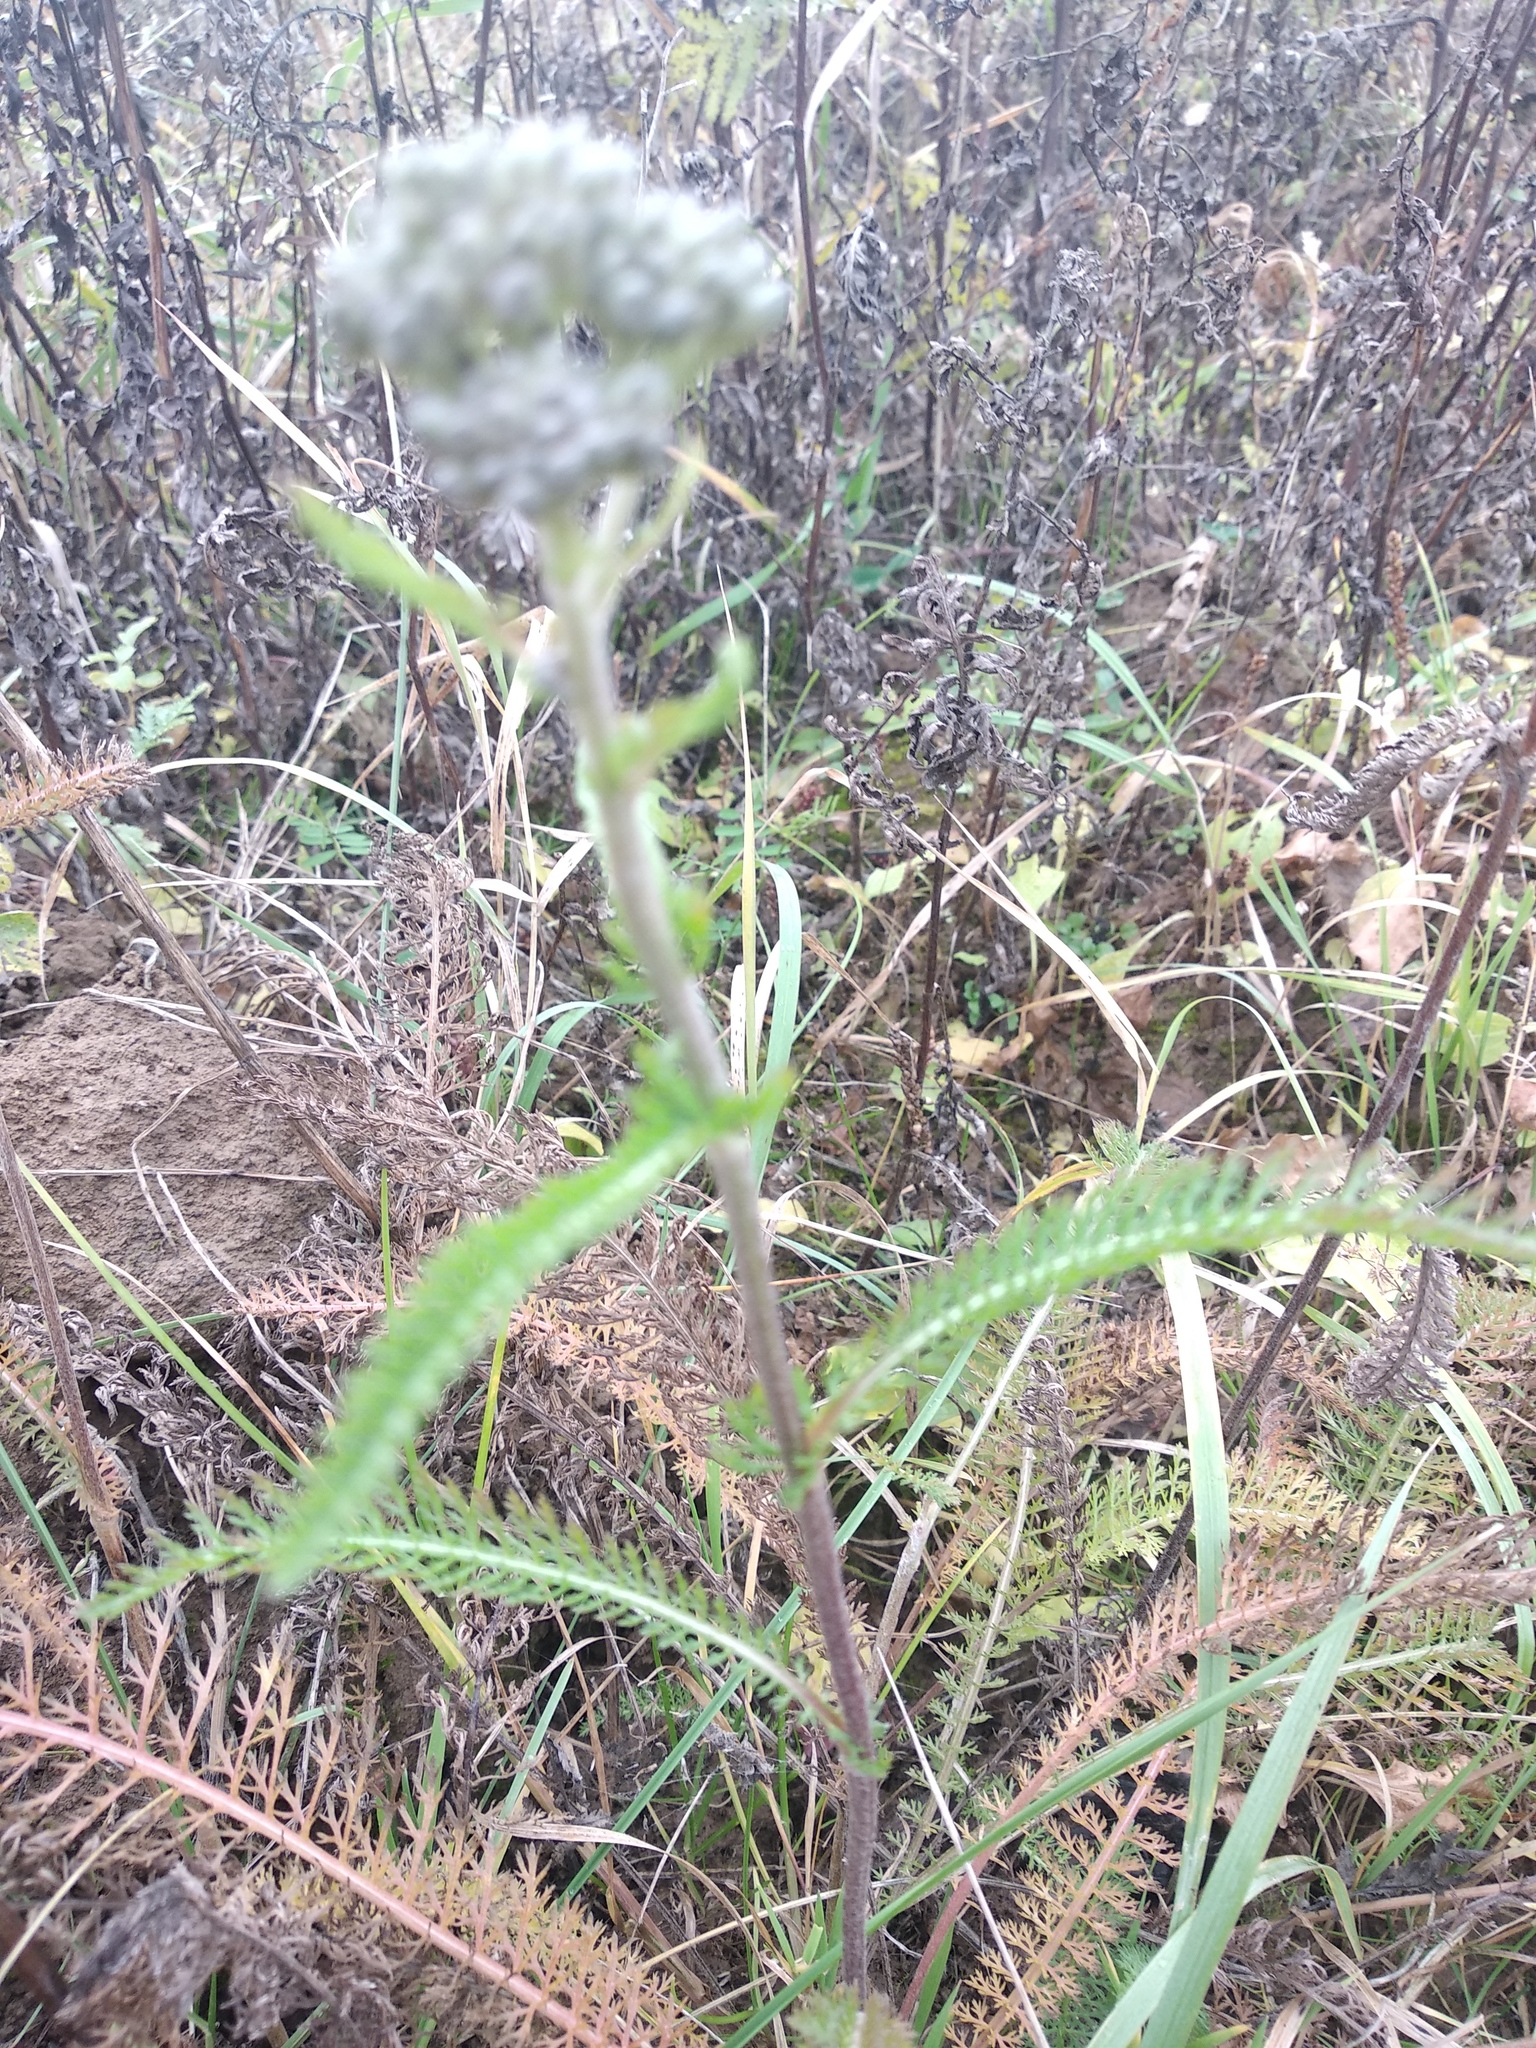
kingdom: Plantae
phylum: Tracheophyta
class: Magnoliopsida
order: Asterales
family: Asteraceae
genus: Achillea
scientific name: Achillea millefolium
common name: Yarrow
